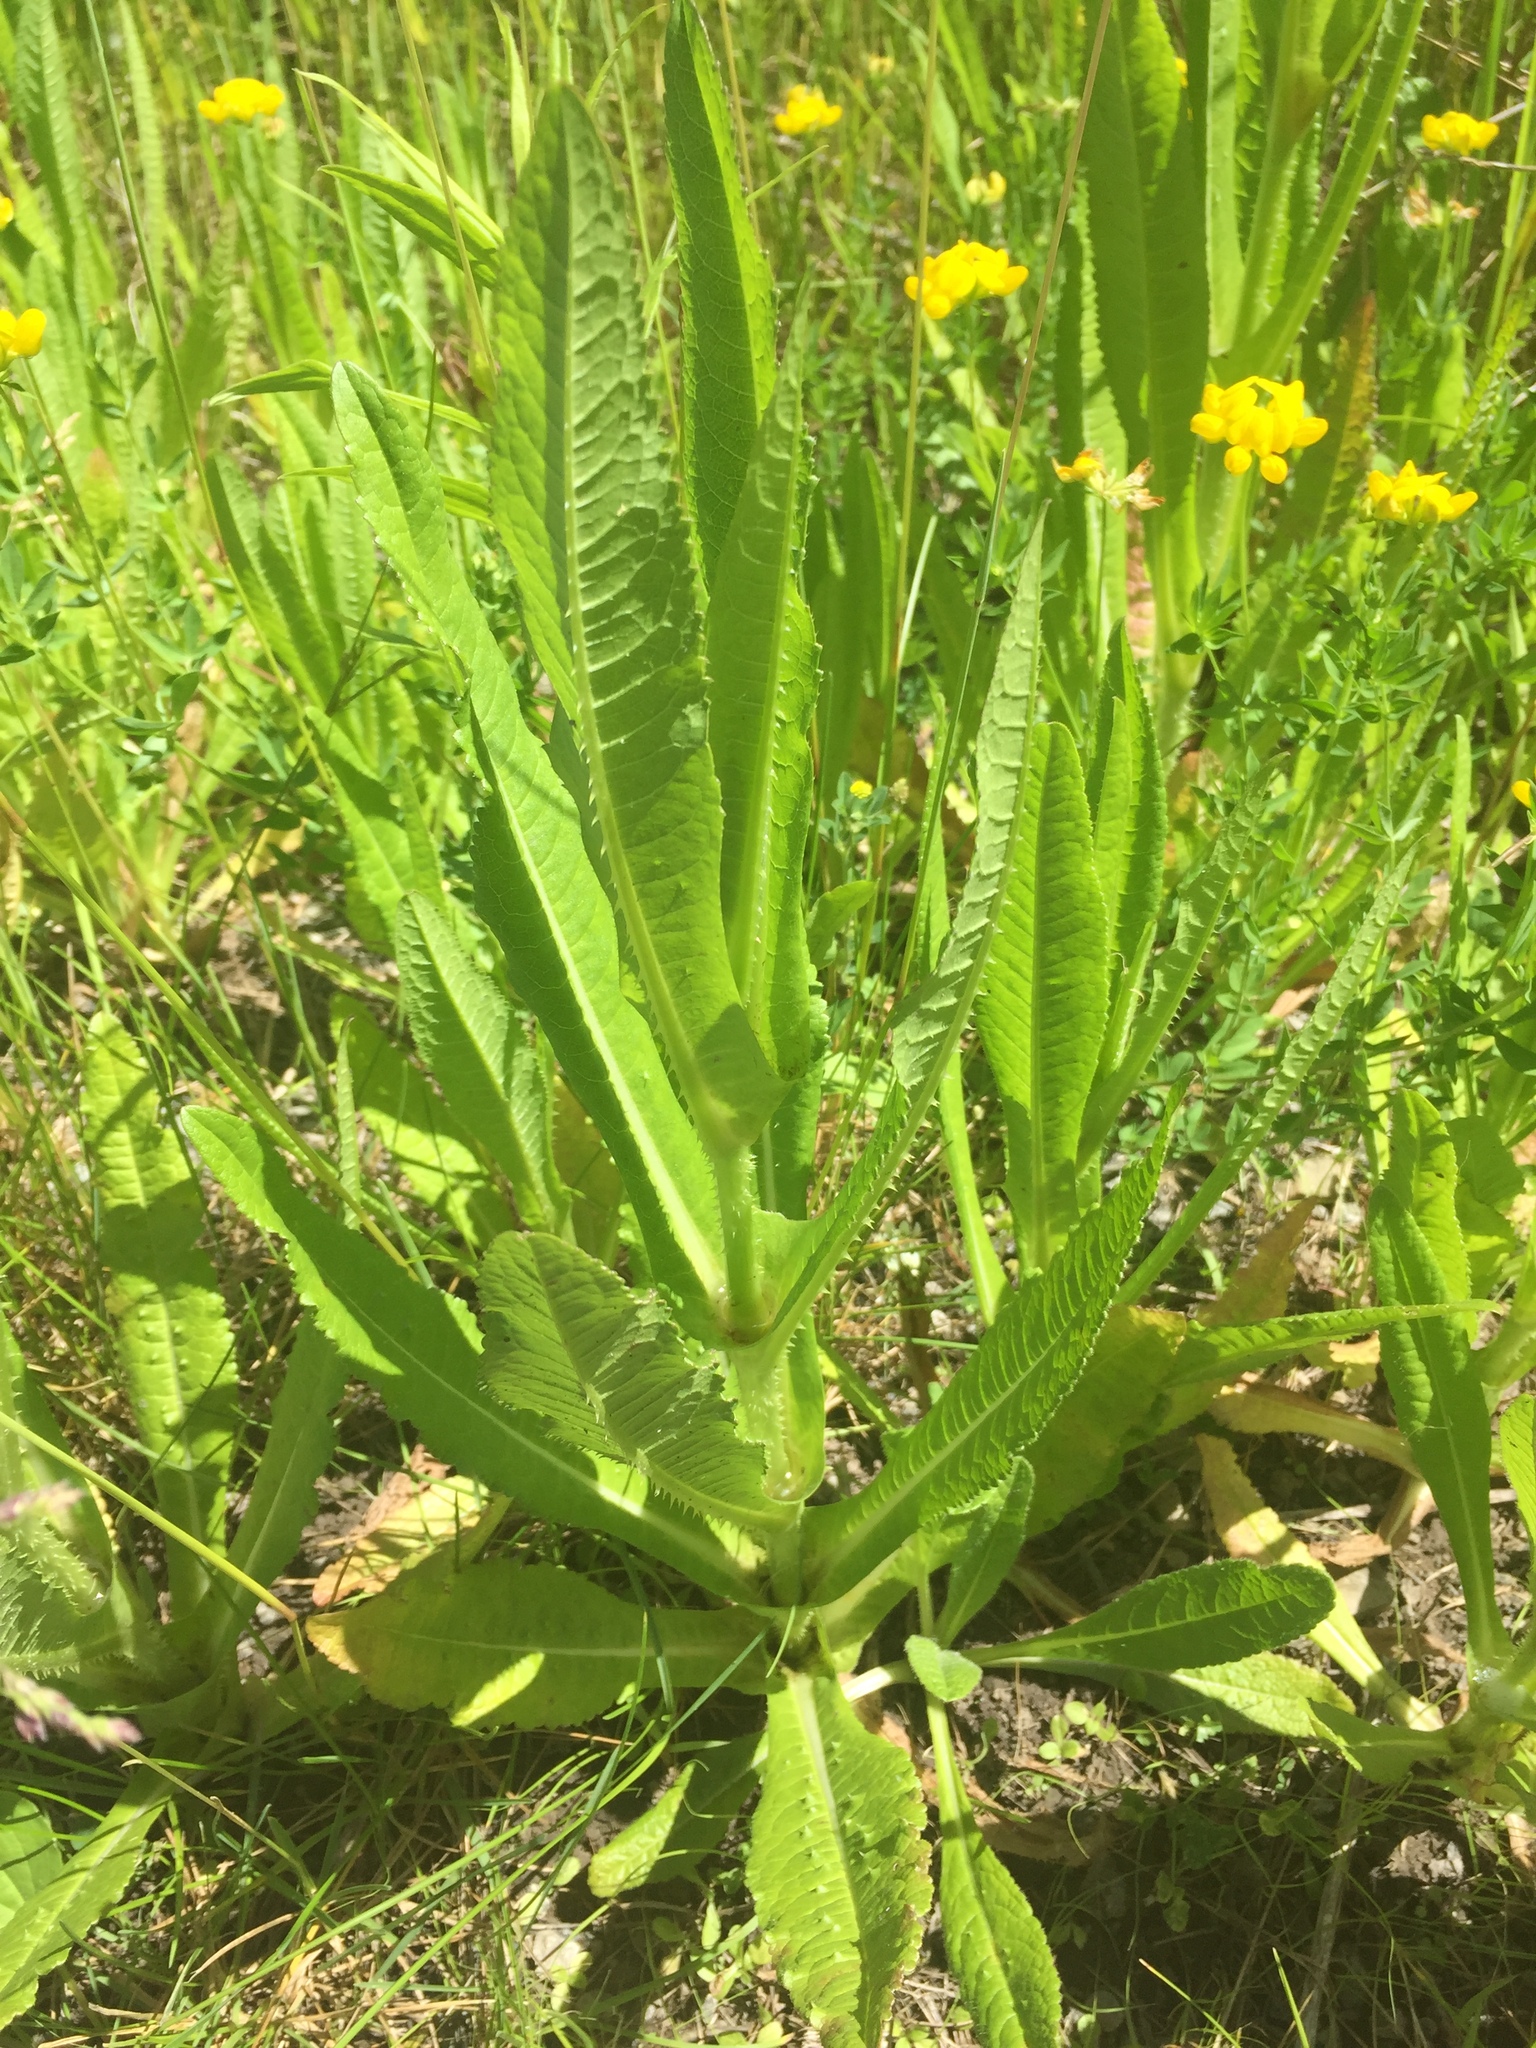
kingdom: Plantae
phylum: Tracheophyta
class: Magnoliopsida
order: Dipsacales
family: Caprifoliaceae
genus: Dipsacus
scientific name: Dipsacus fullonum
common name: Teasel
